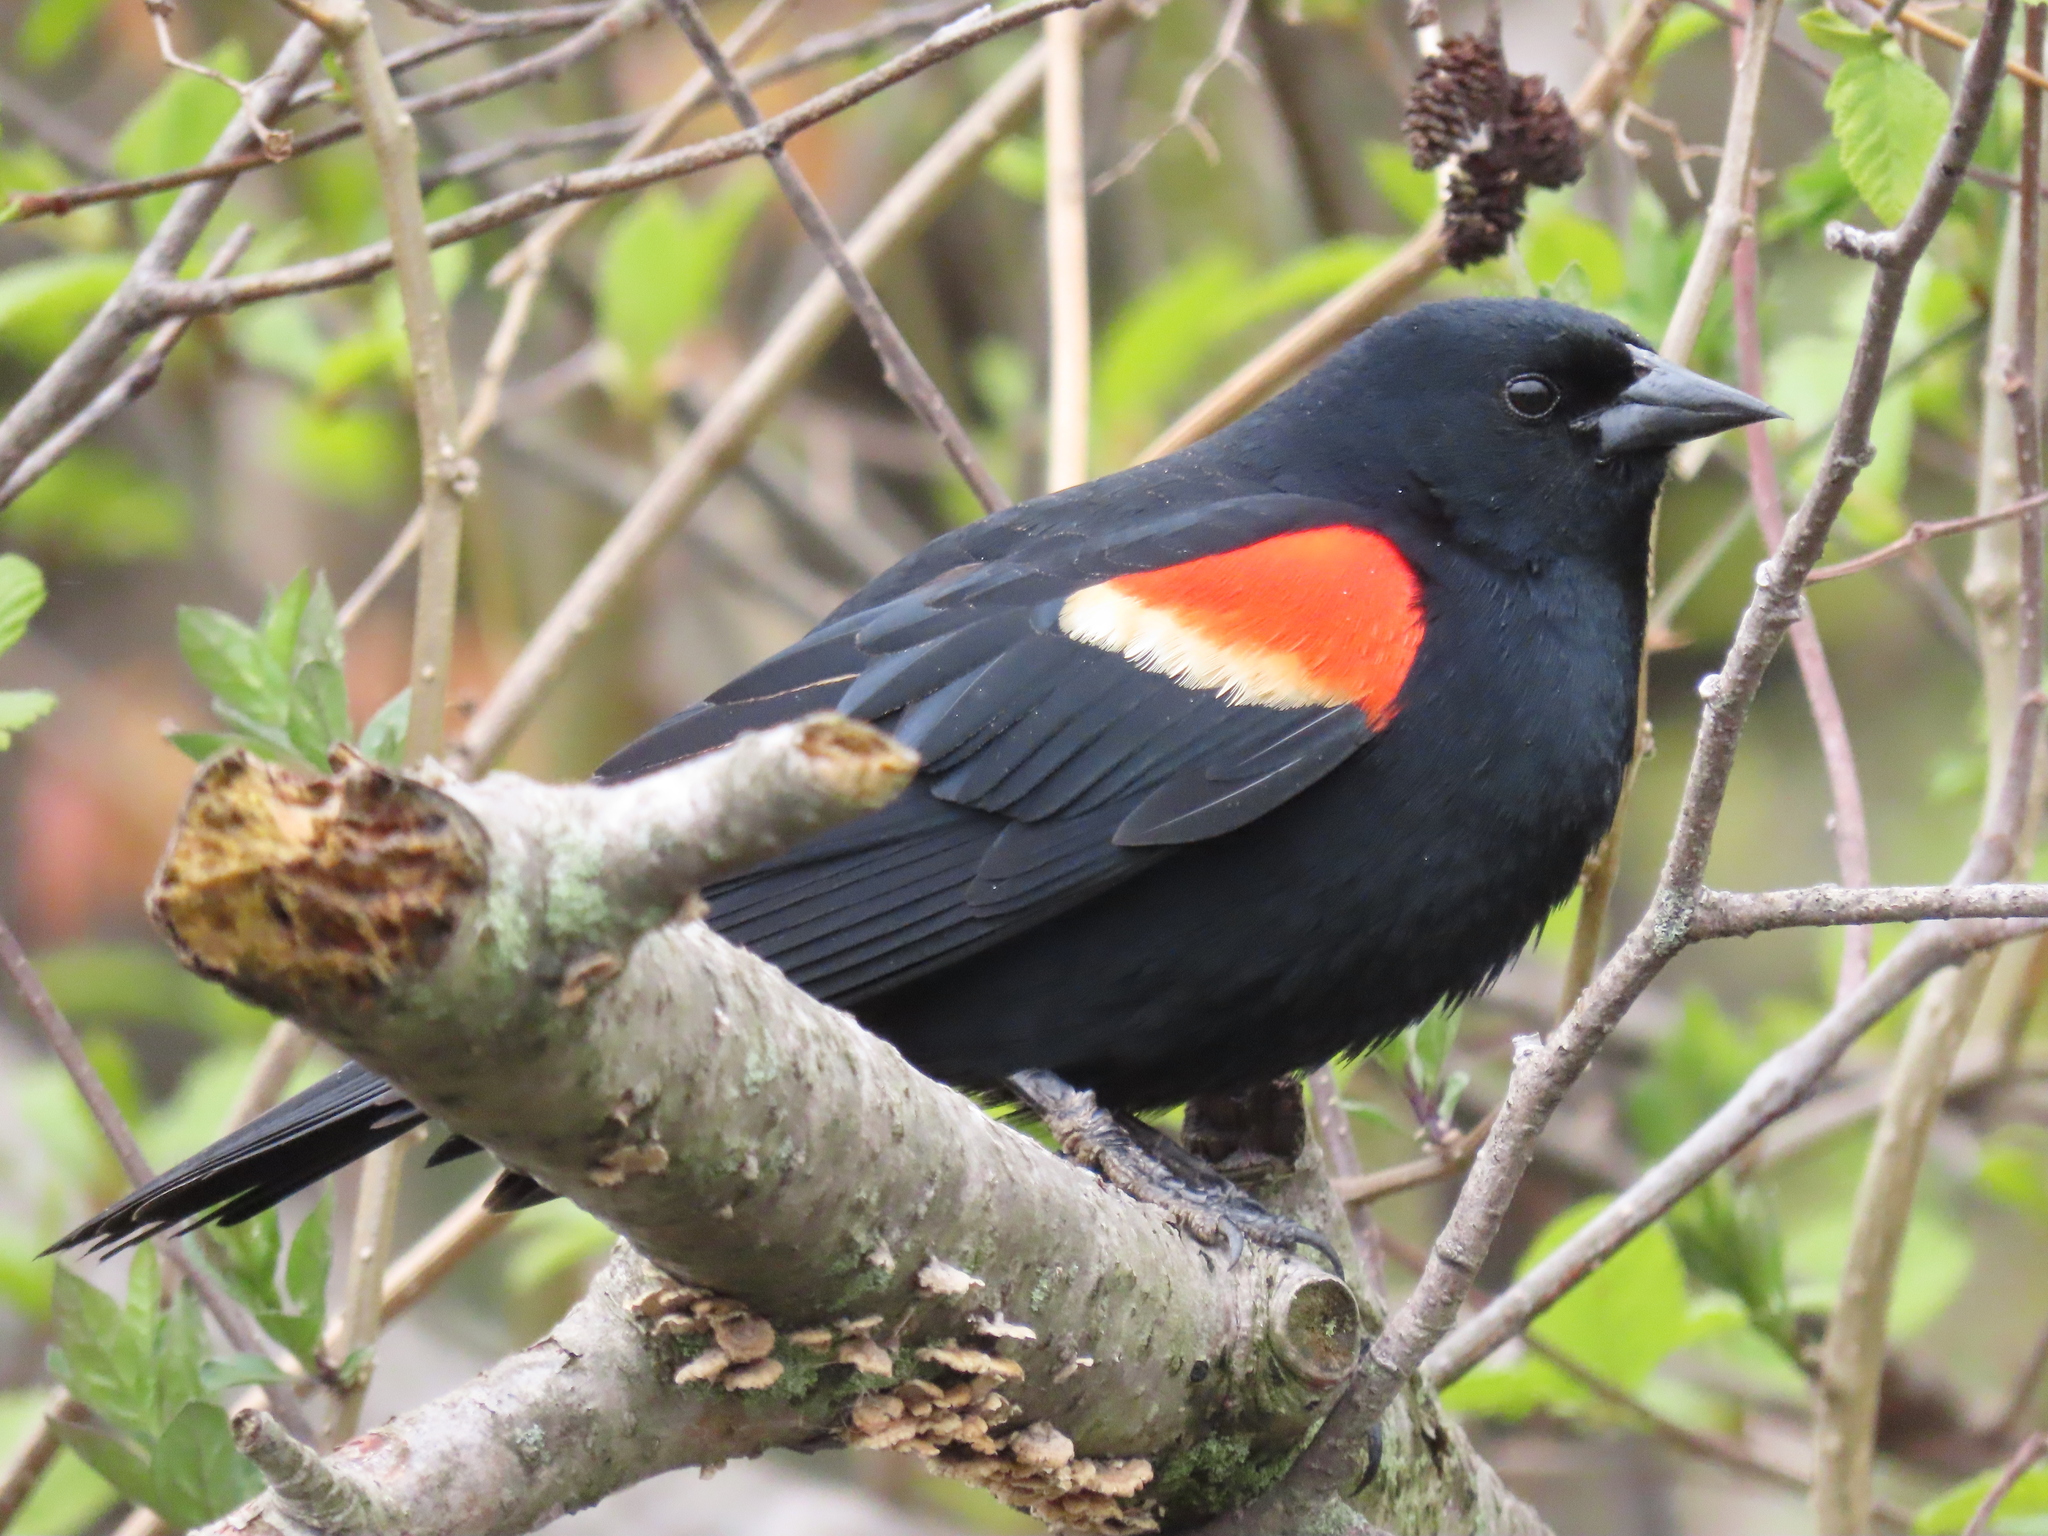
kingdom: Animalia
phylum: Chordata
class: Aves
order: Passeriformes
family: Icteridae
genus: Agelaius
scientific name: Agelaius phoeniceus
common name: Red-winged blackbird
